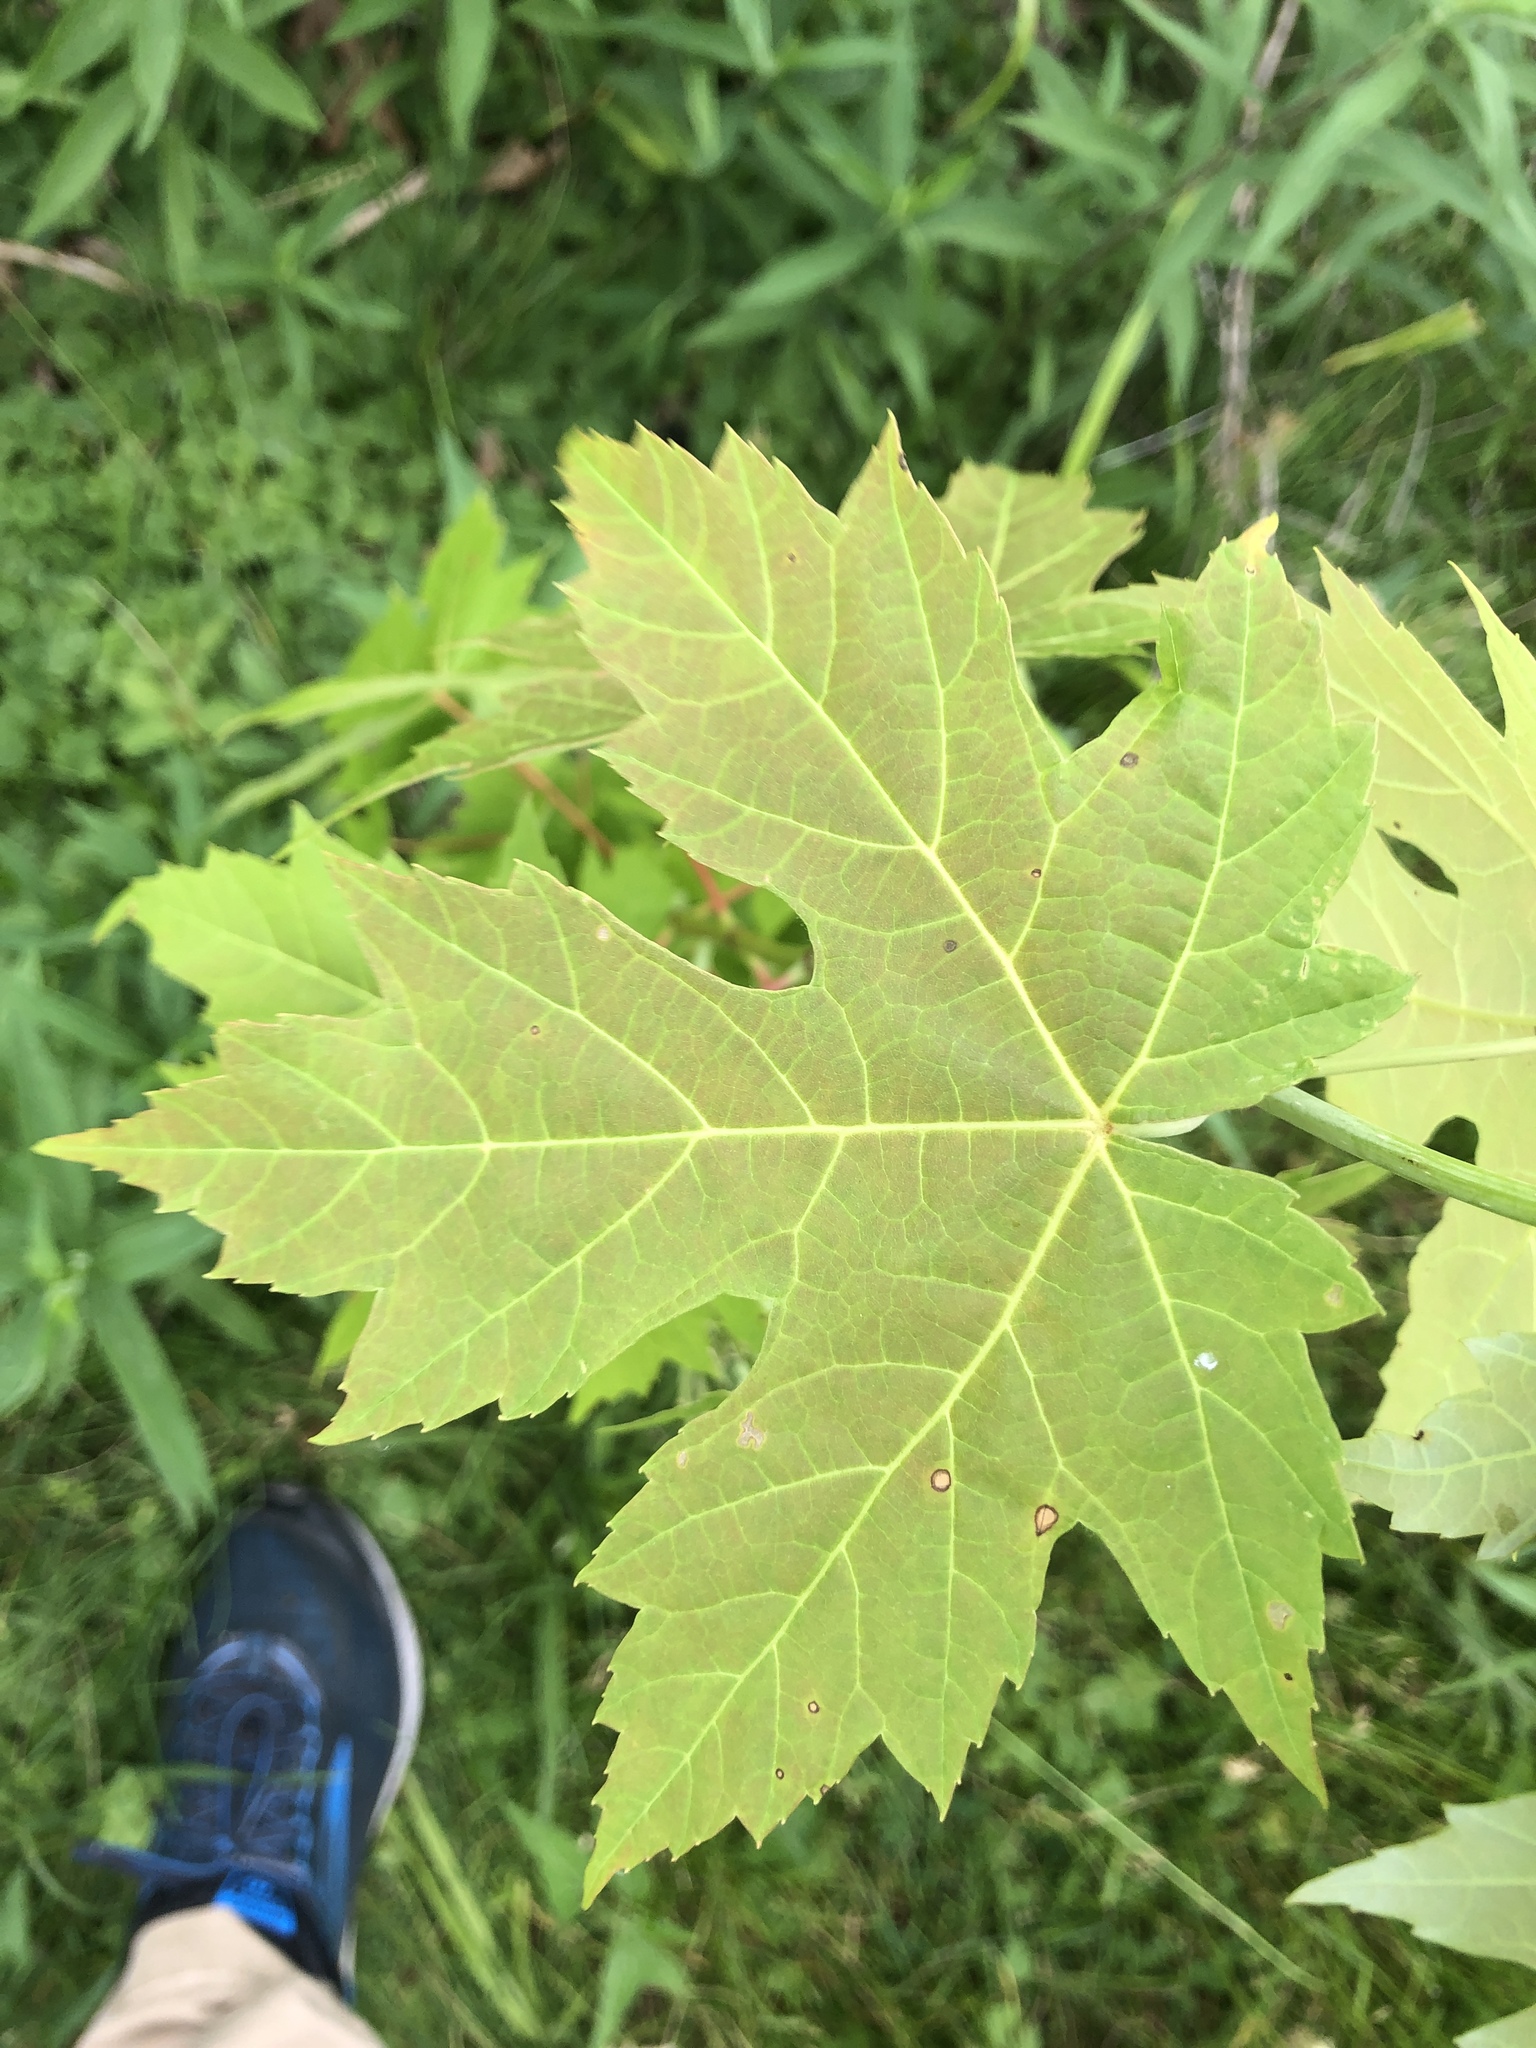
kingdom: Plantae
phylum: Tracheophyta
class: Magnoliopsida
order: Sapindales
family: Sapindaceae
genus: Acer
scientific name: Acer saccharinum
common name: Silver maple
